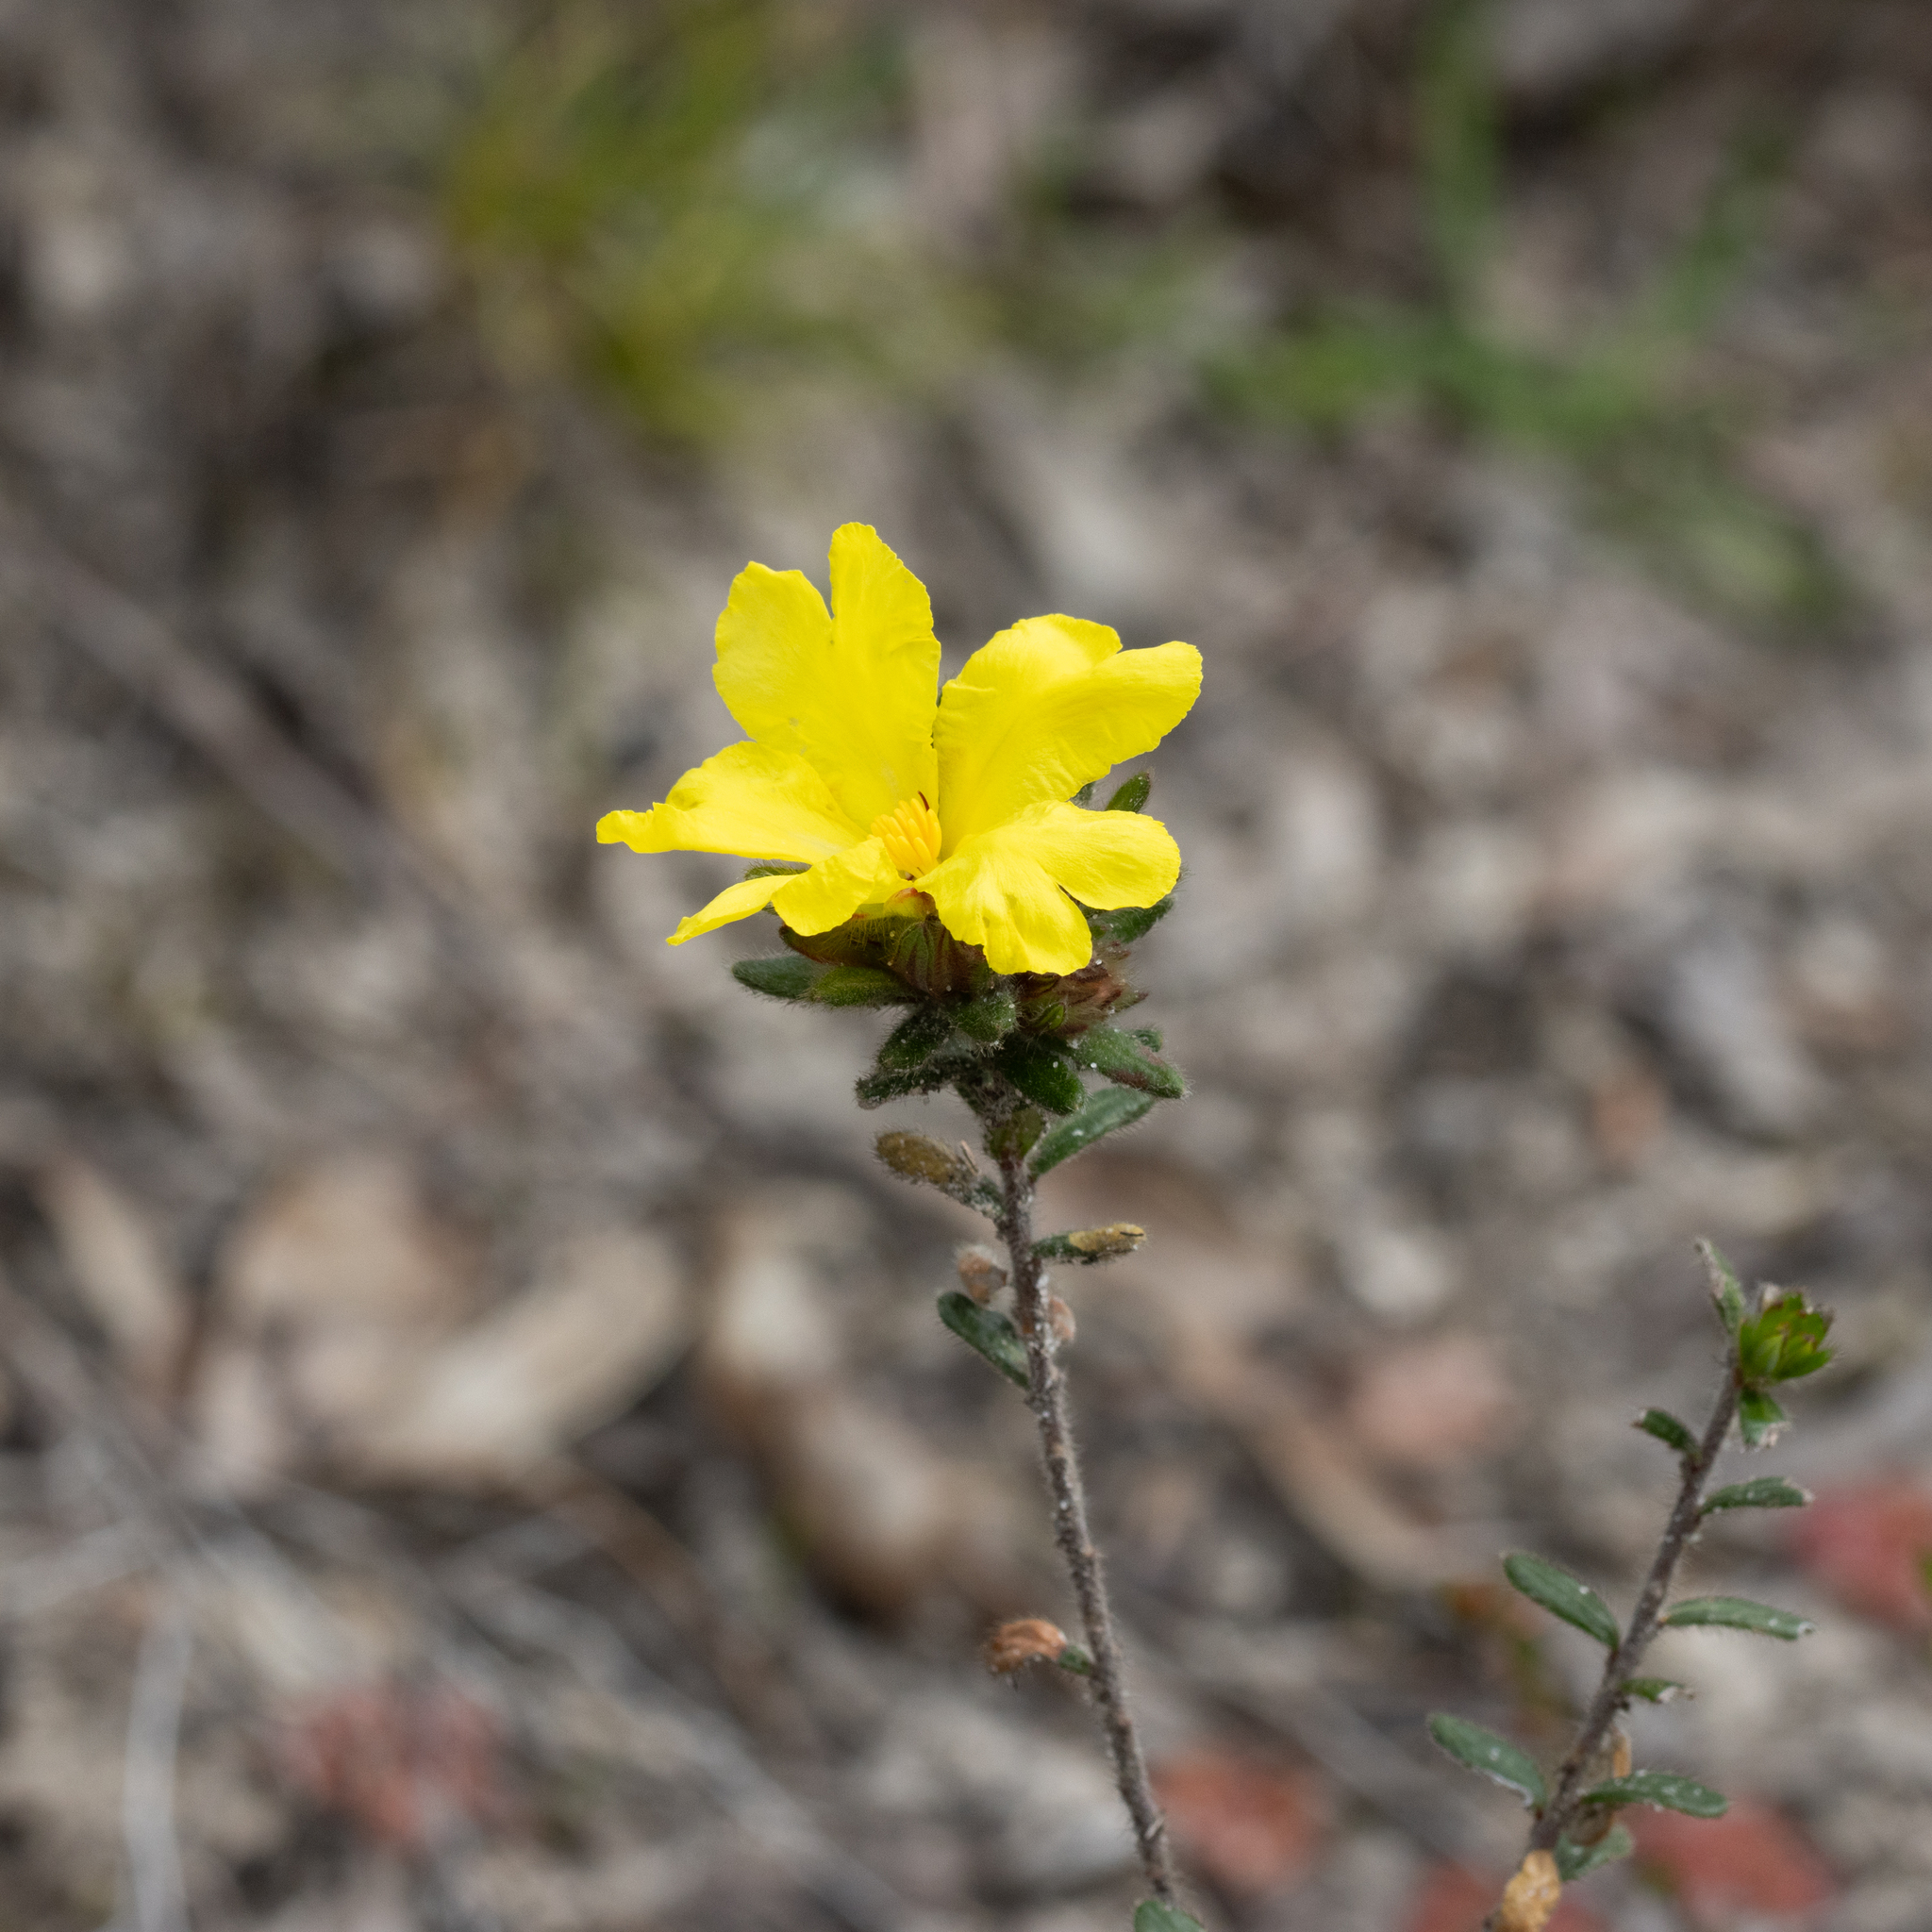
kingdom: Plantae
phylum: Tracheophyta
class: Magnoliopsida
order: Dilleniales
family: Dilleniaceae
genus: Hibbertia
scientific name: Hibbertia sericea
